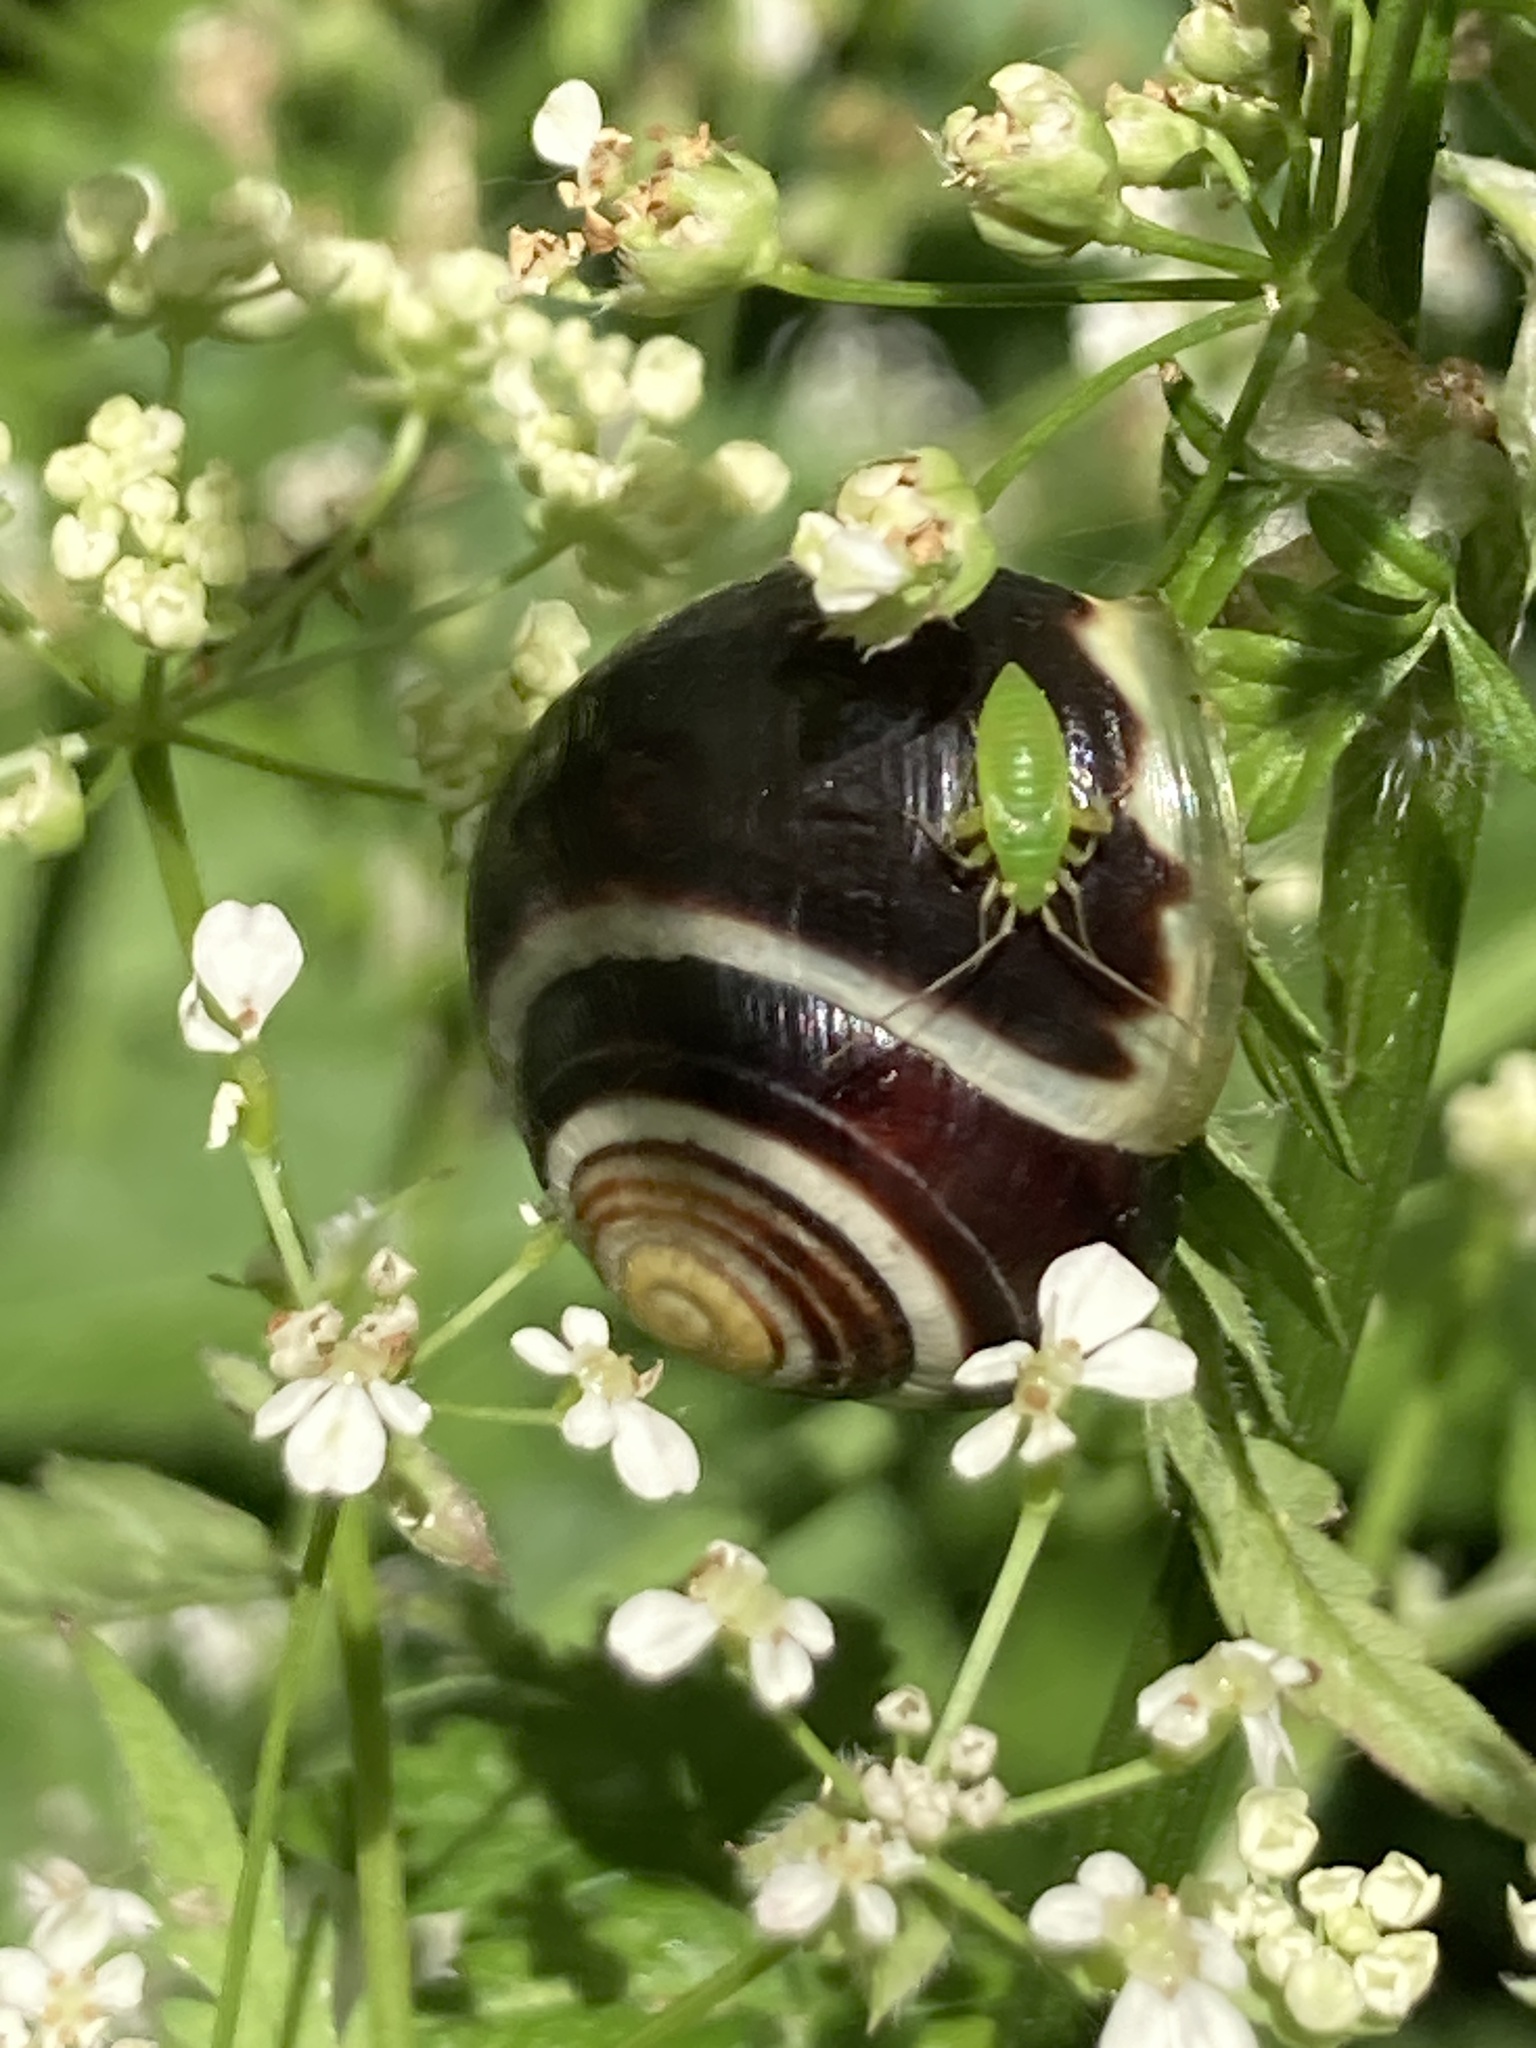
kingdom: Animalia
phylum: Mollusca
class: Gastropoda
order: Stylommatophora
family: Helicidae
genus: Cepaea
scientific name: Cepaea hortensis
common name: White-lip gardensnail
